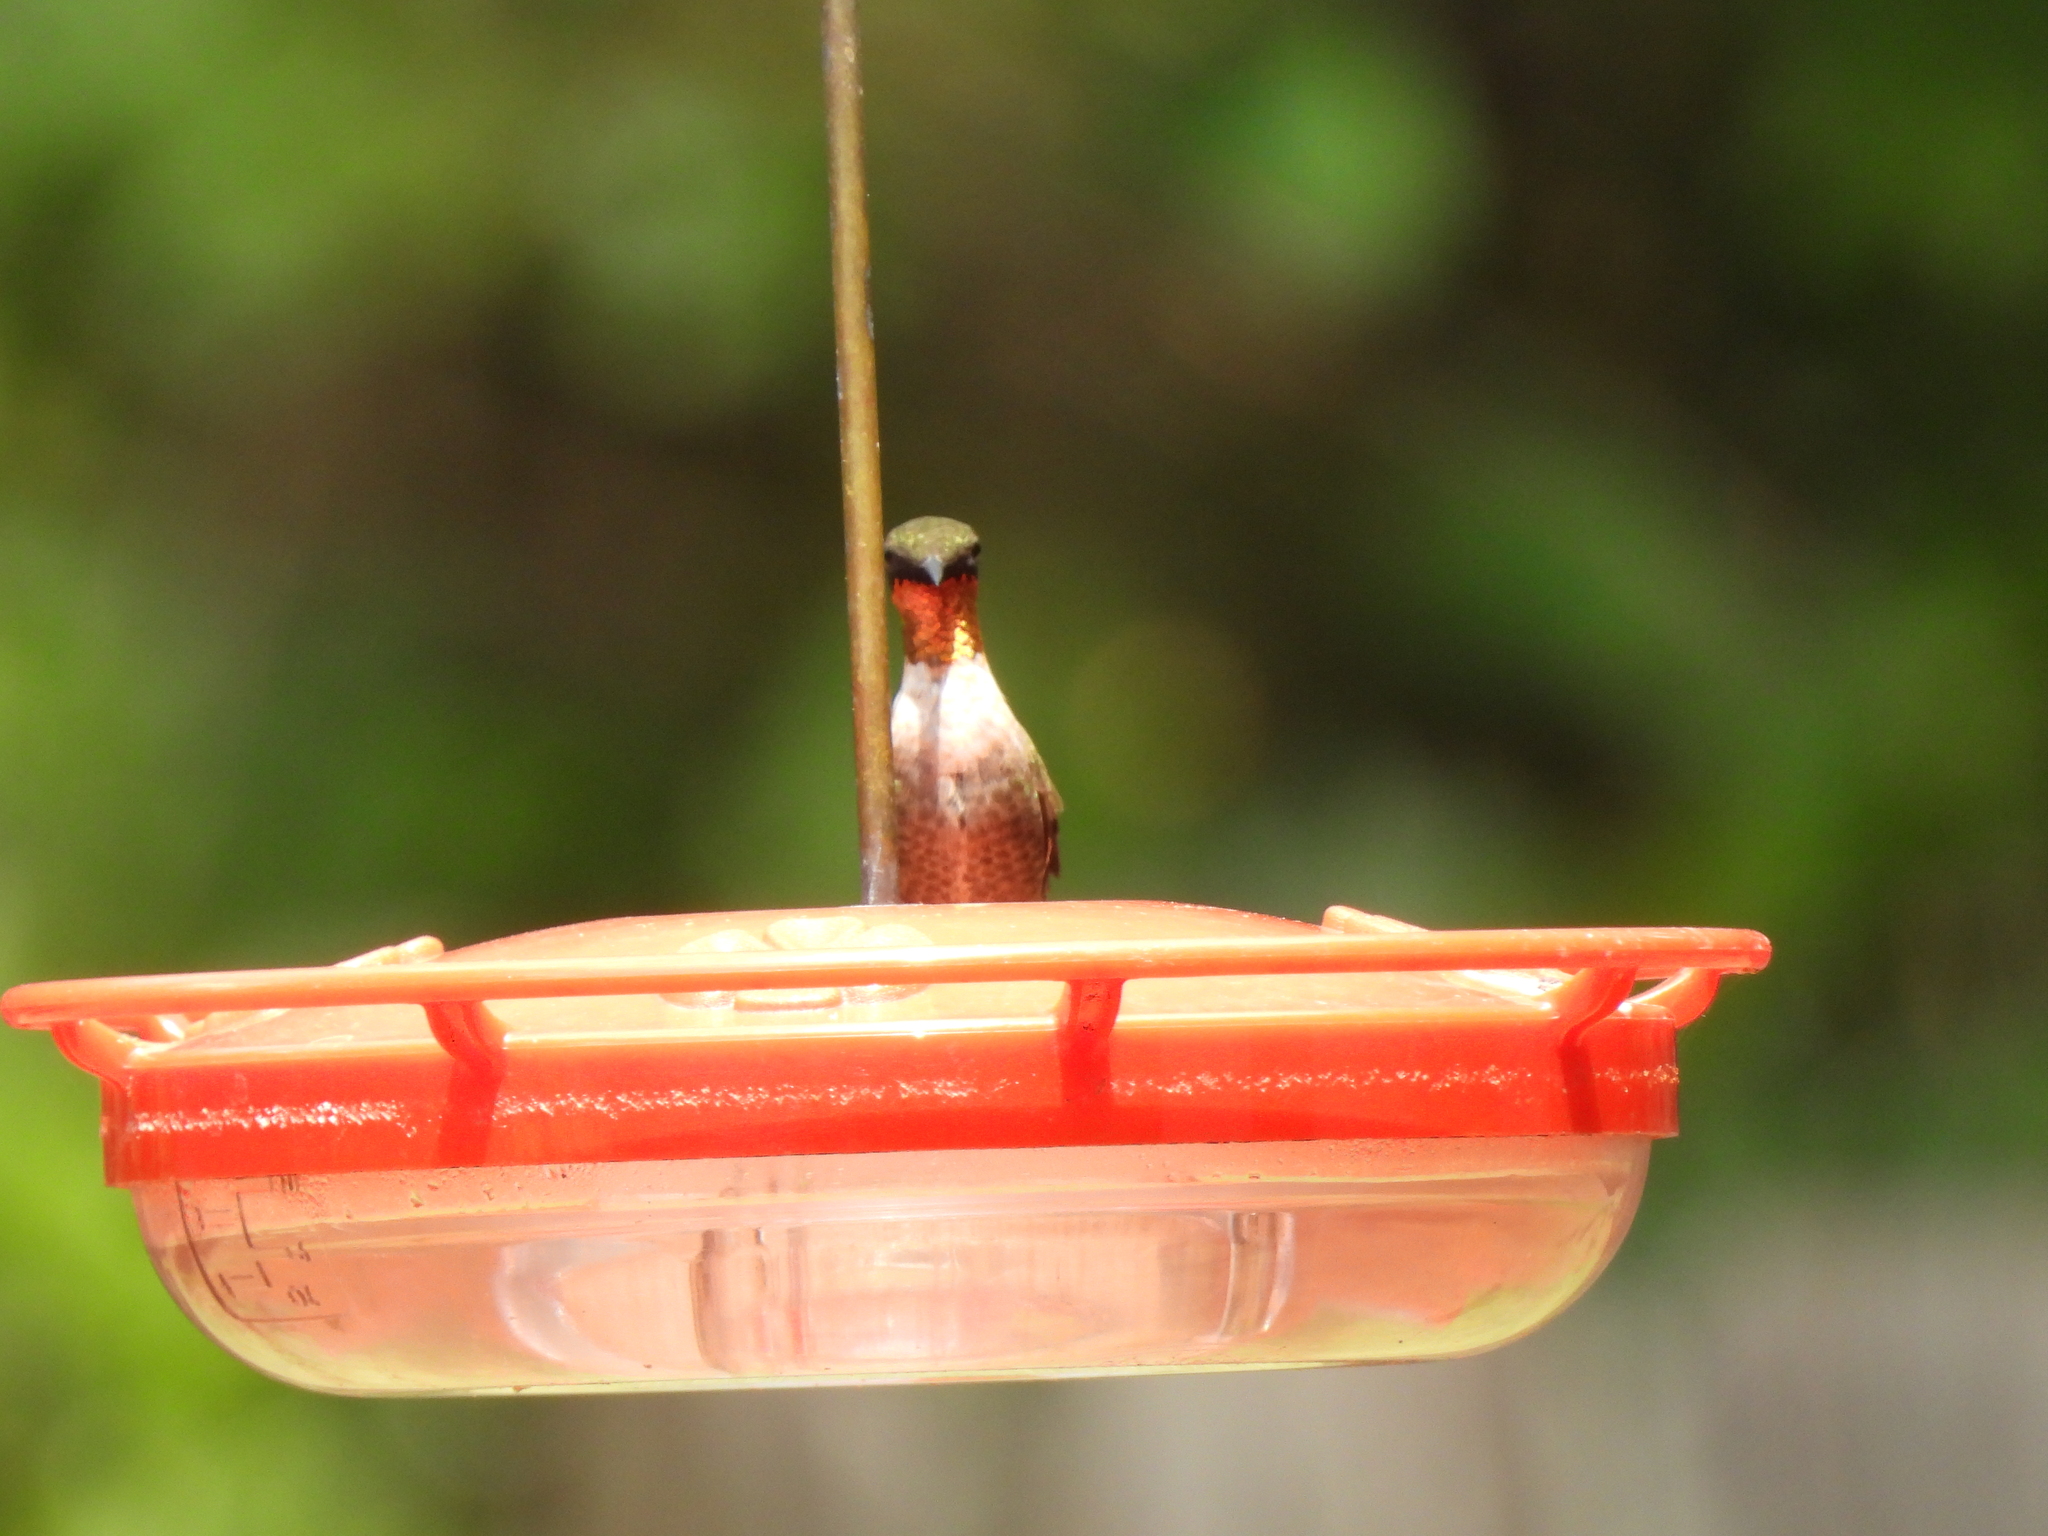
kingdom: Animalia
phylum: Chordata
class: Aves
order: Apodiformes
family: Trochilidae
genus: Archilochus
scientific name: Archilochus colubris
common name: Ruby-throated hummingbird
